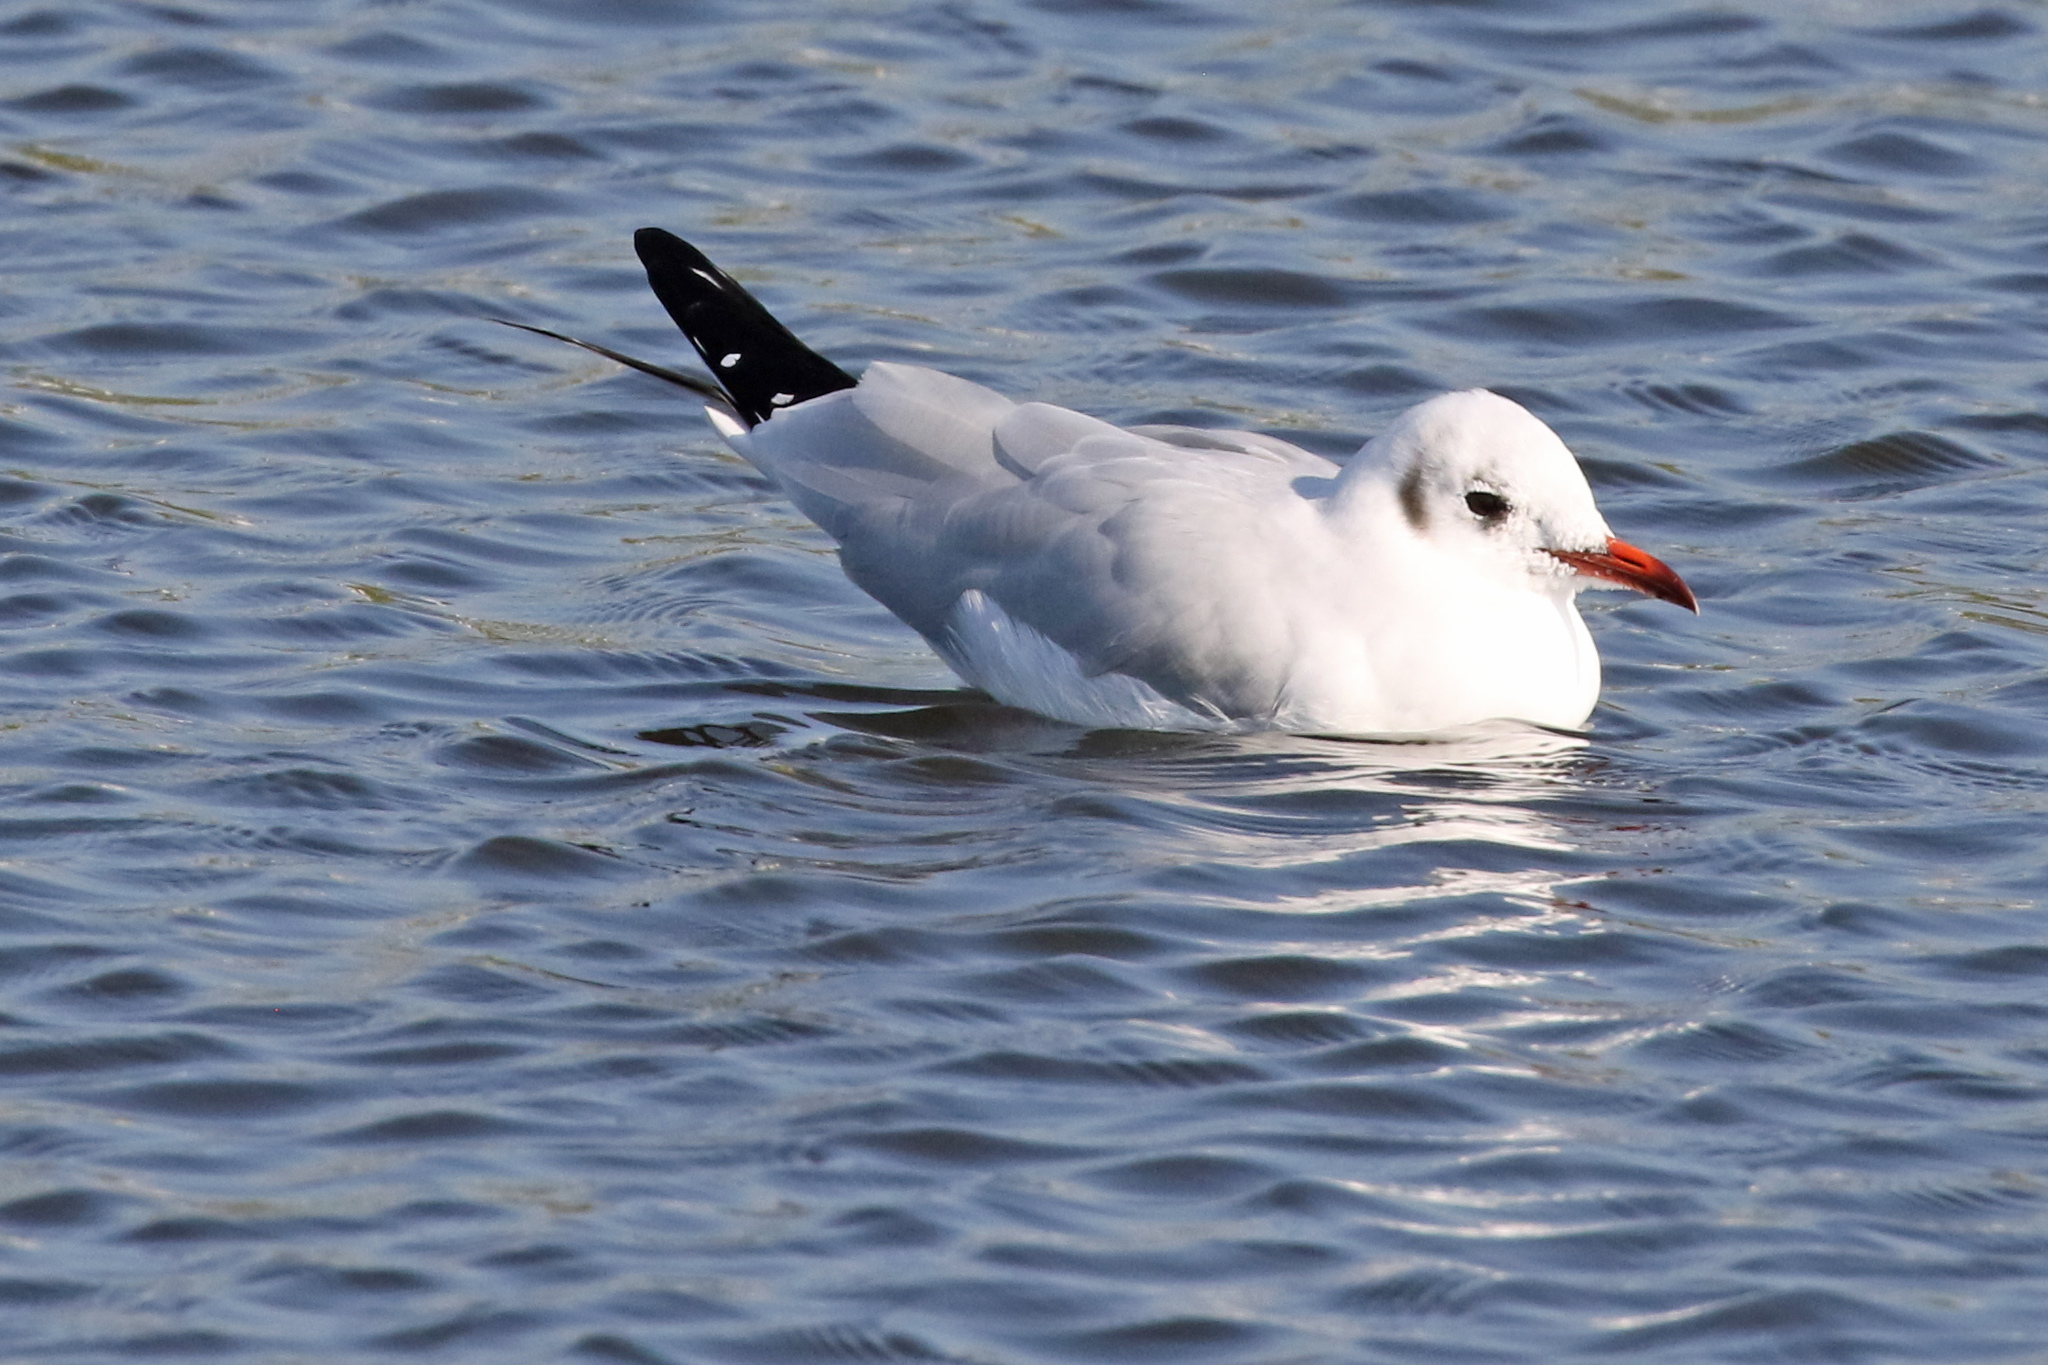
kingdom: Animalia
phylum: Chordata
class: Aves
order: Charadriiformes
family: Laridae
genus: Chroicocephalus
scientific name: Chroicocephalus ridibundus
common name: Black-headed gull
